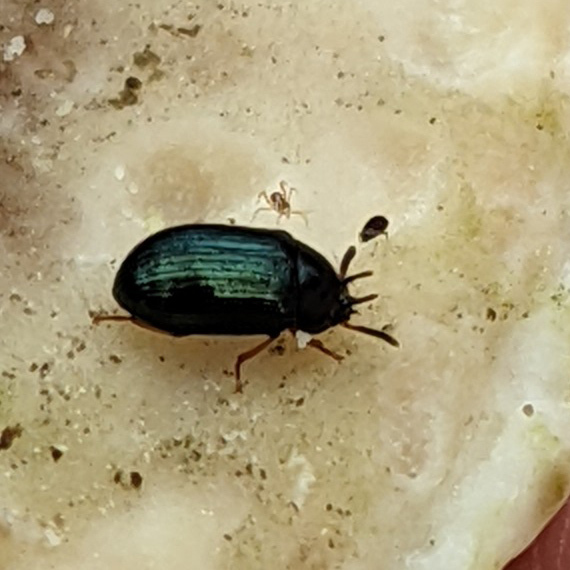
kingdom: Animalia
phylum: Arthropoda
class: Insecta
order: Coleoptera
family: Tenebrionidae
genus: Neomida
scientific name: Neomida bicornis
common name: Two-horned darkling beetle
